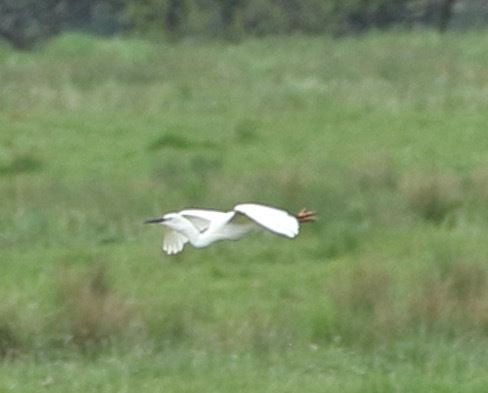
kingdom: Animalia
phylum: Chordata
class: Aves
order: Pelecaniformes
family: Ardeidae
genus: Egretta
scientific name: Egretta garzetta
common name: Little egret
